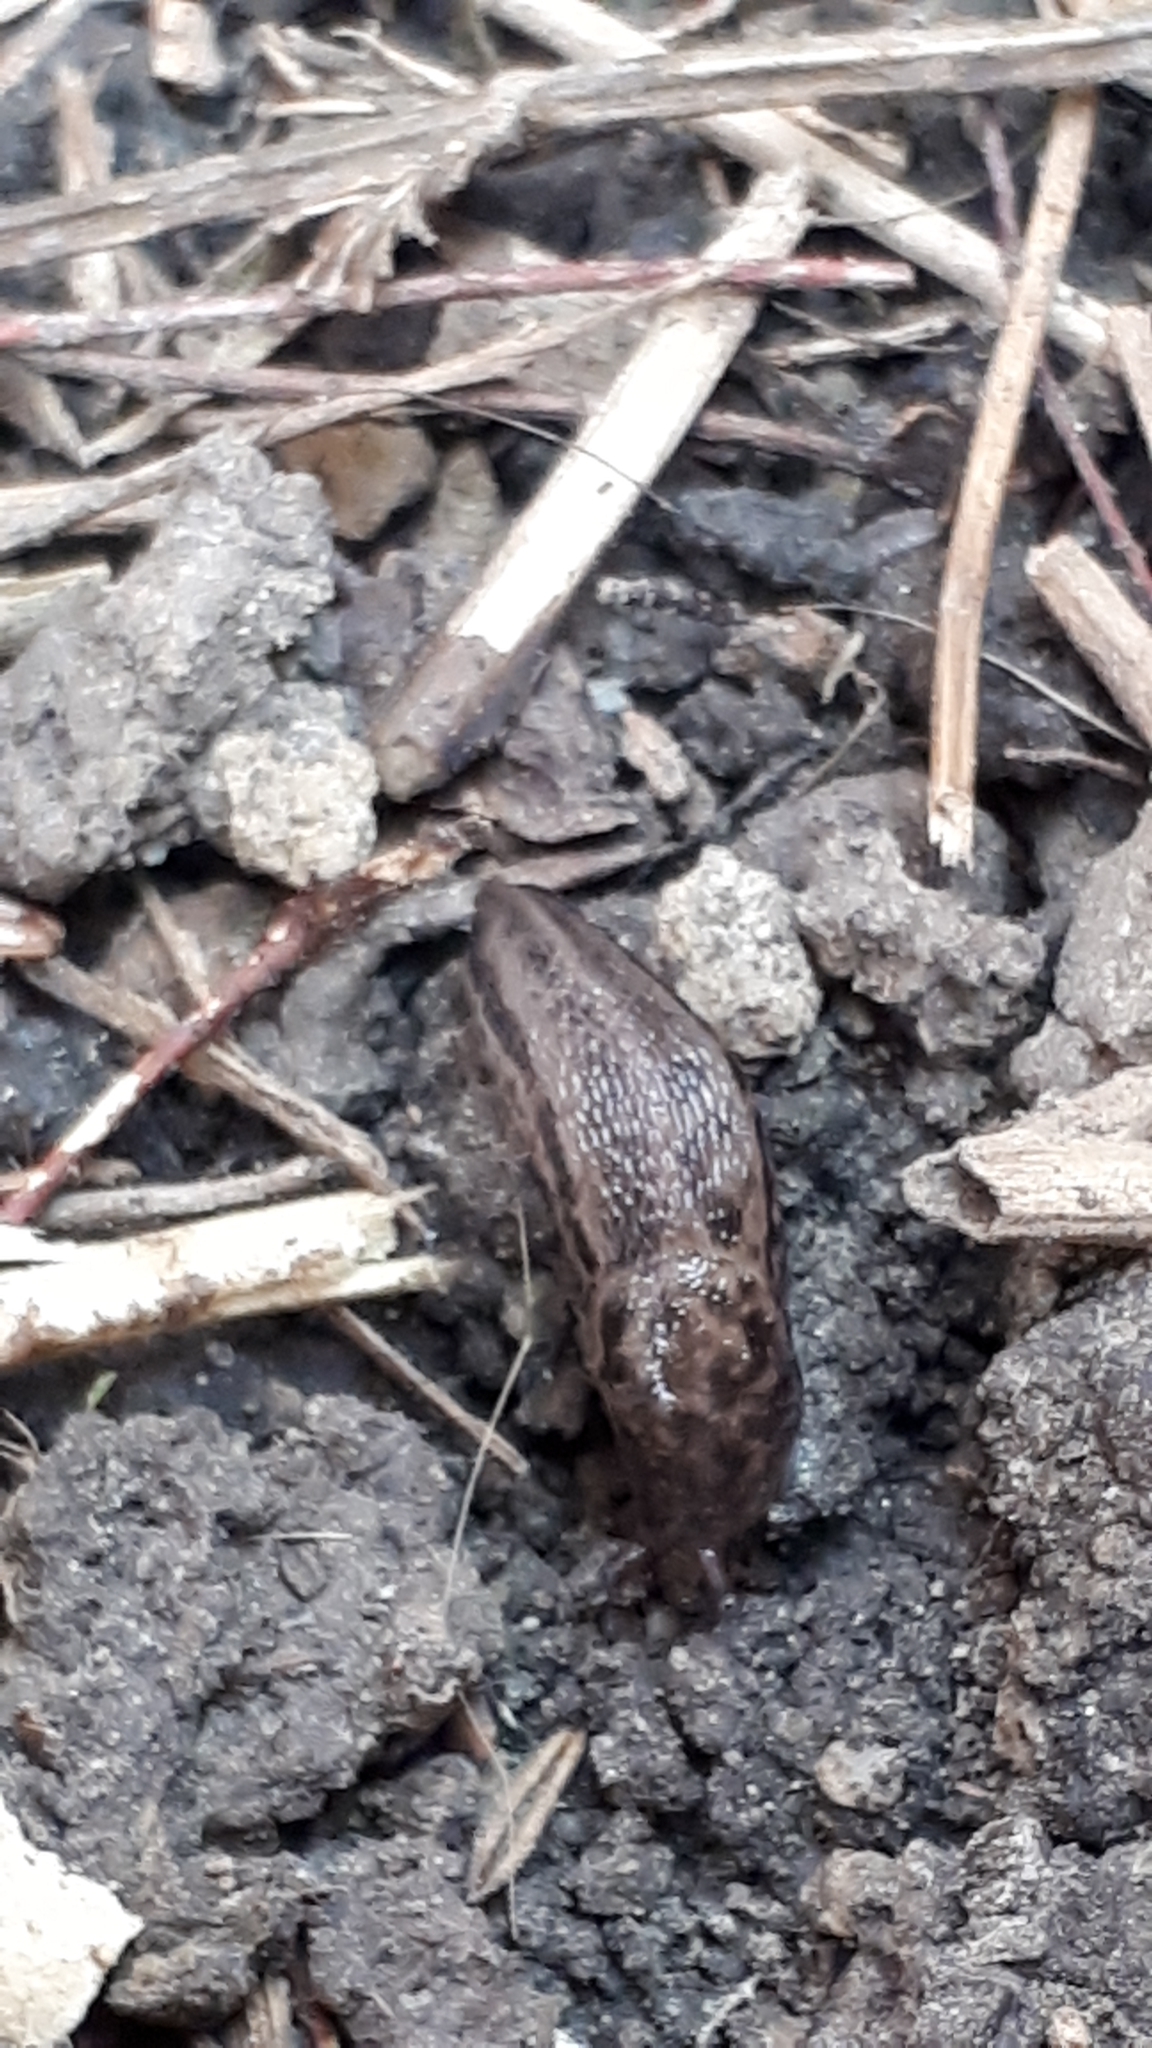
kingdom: Animalia
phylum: Mollusca
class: Gastropoda
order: Stylommatophora
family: Limacidae
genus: Limax
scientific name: Limax maximus
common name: Great grey slug
